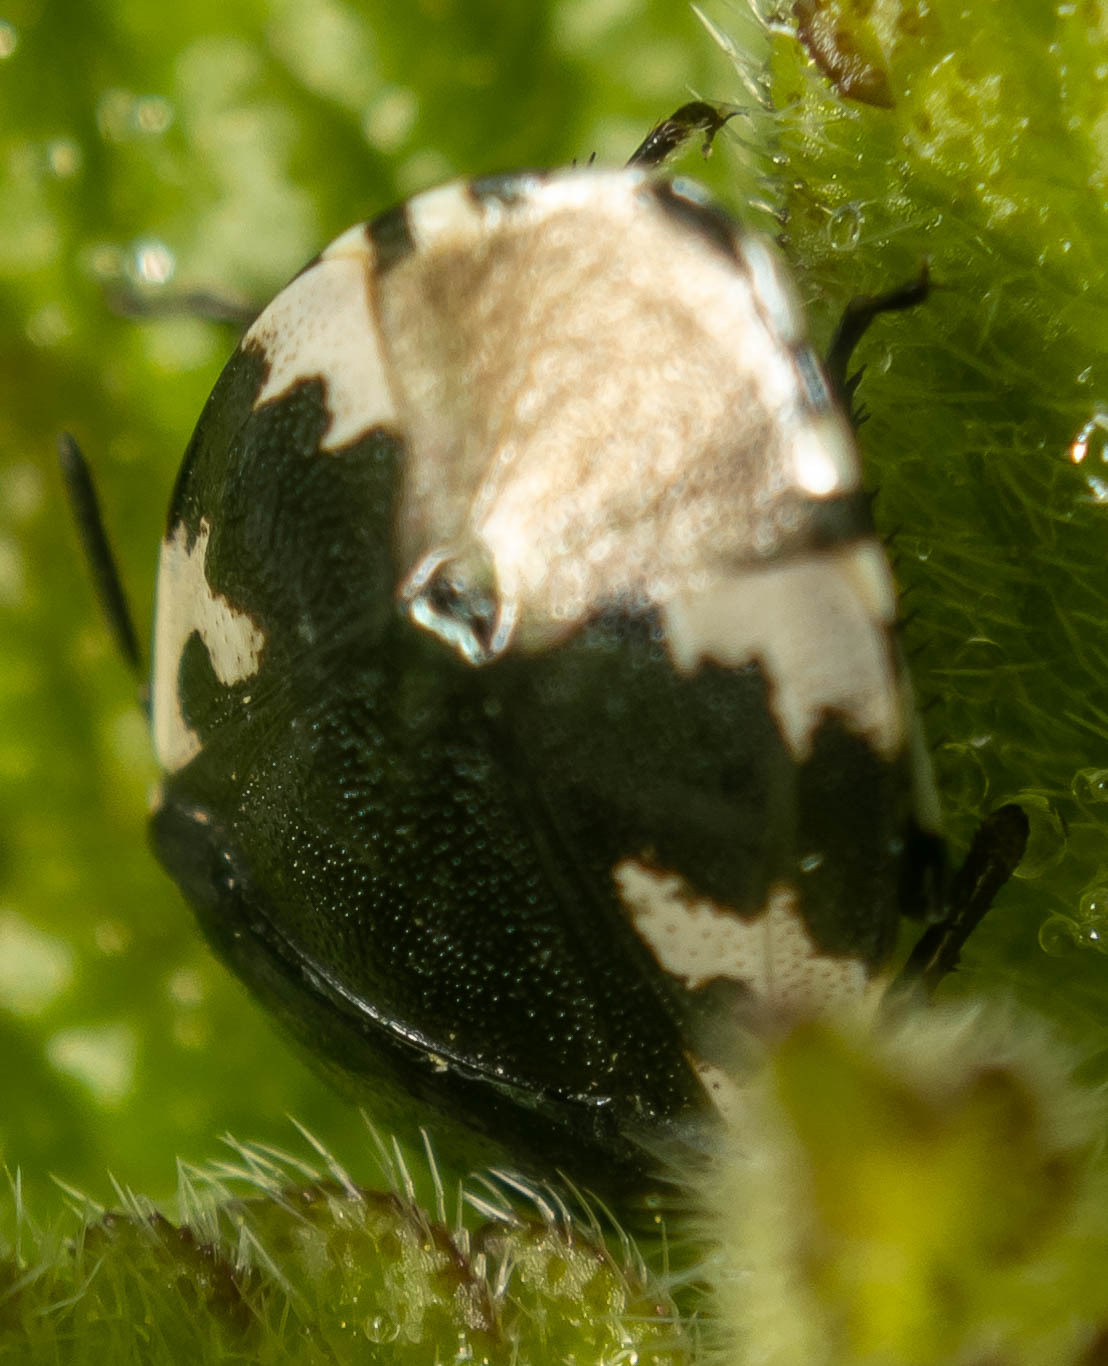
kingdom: Animalia
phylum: Arthropoda
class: Insecta
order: Hemiptera
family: Cydnidae
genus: Tritomegas
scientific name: Tritomegas bicolor
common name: Pied shieldbug
